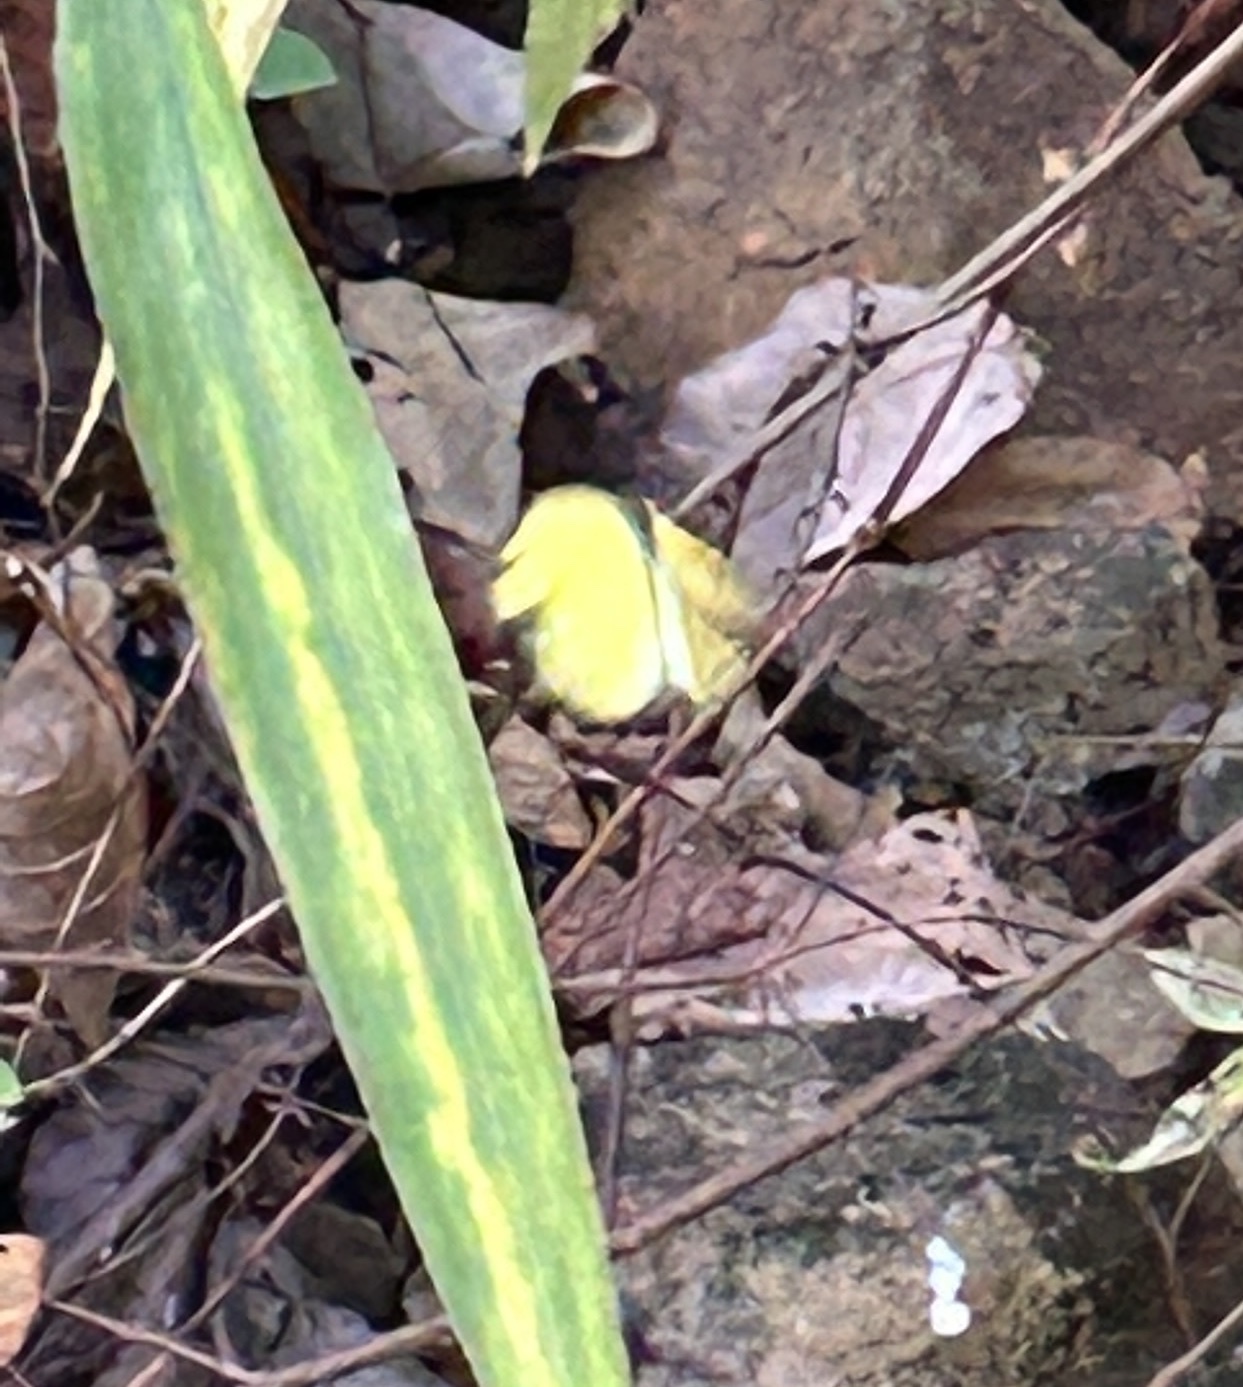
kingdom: Animalia
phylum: Arthropoda
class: Insecta
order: Lepidoptera
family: Pieridae
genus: Eurema
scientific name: Eurema hecabe
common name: Pale grass yellow
